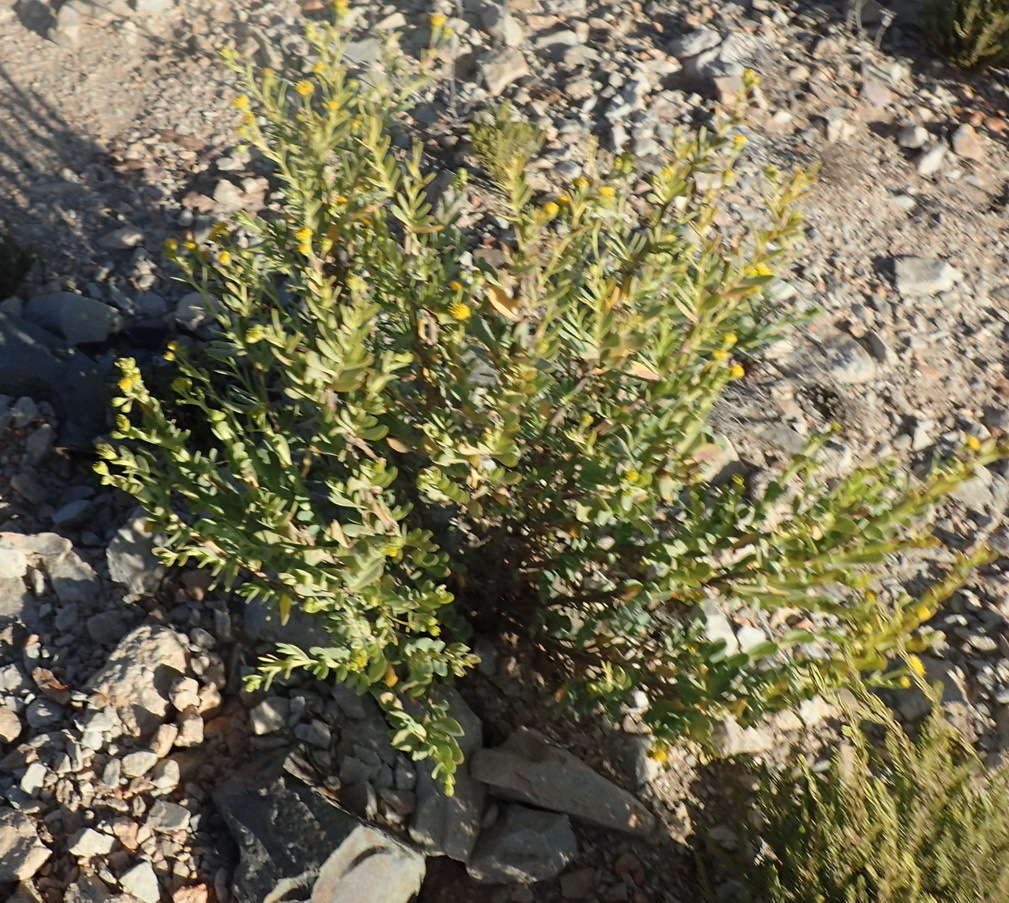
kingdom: Plantae
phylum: Tracheophyta
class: Magnoliopsida
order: Asterales
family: Asteraceae
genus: Hertia
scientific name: Hertia kraussii
